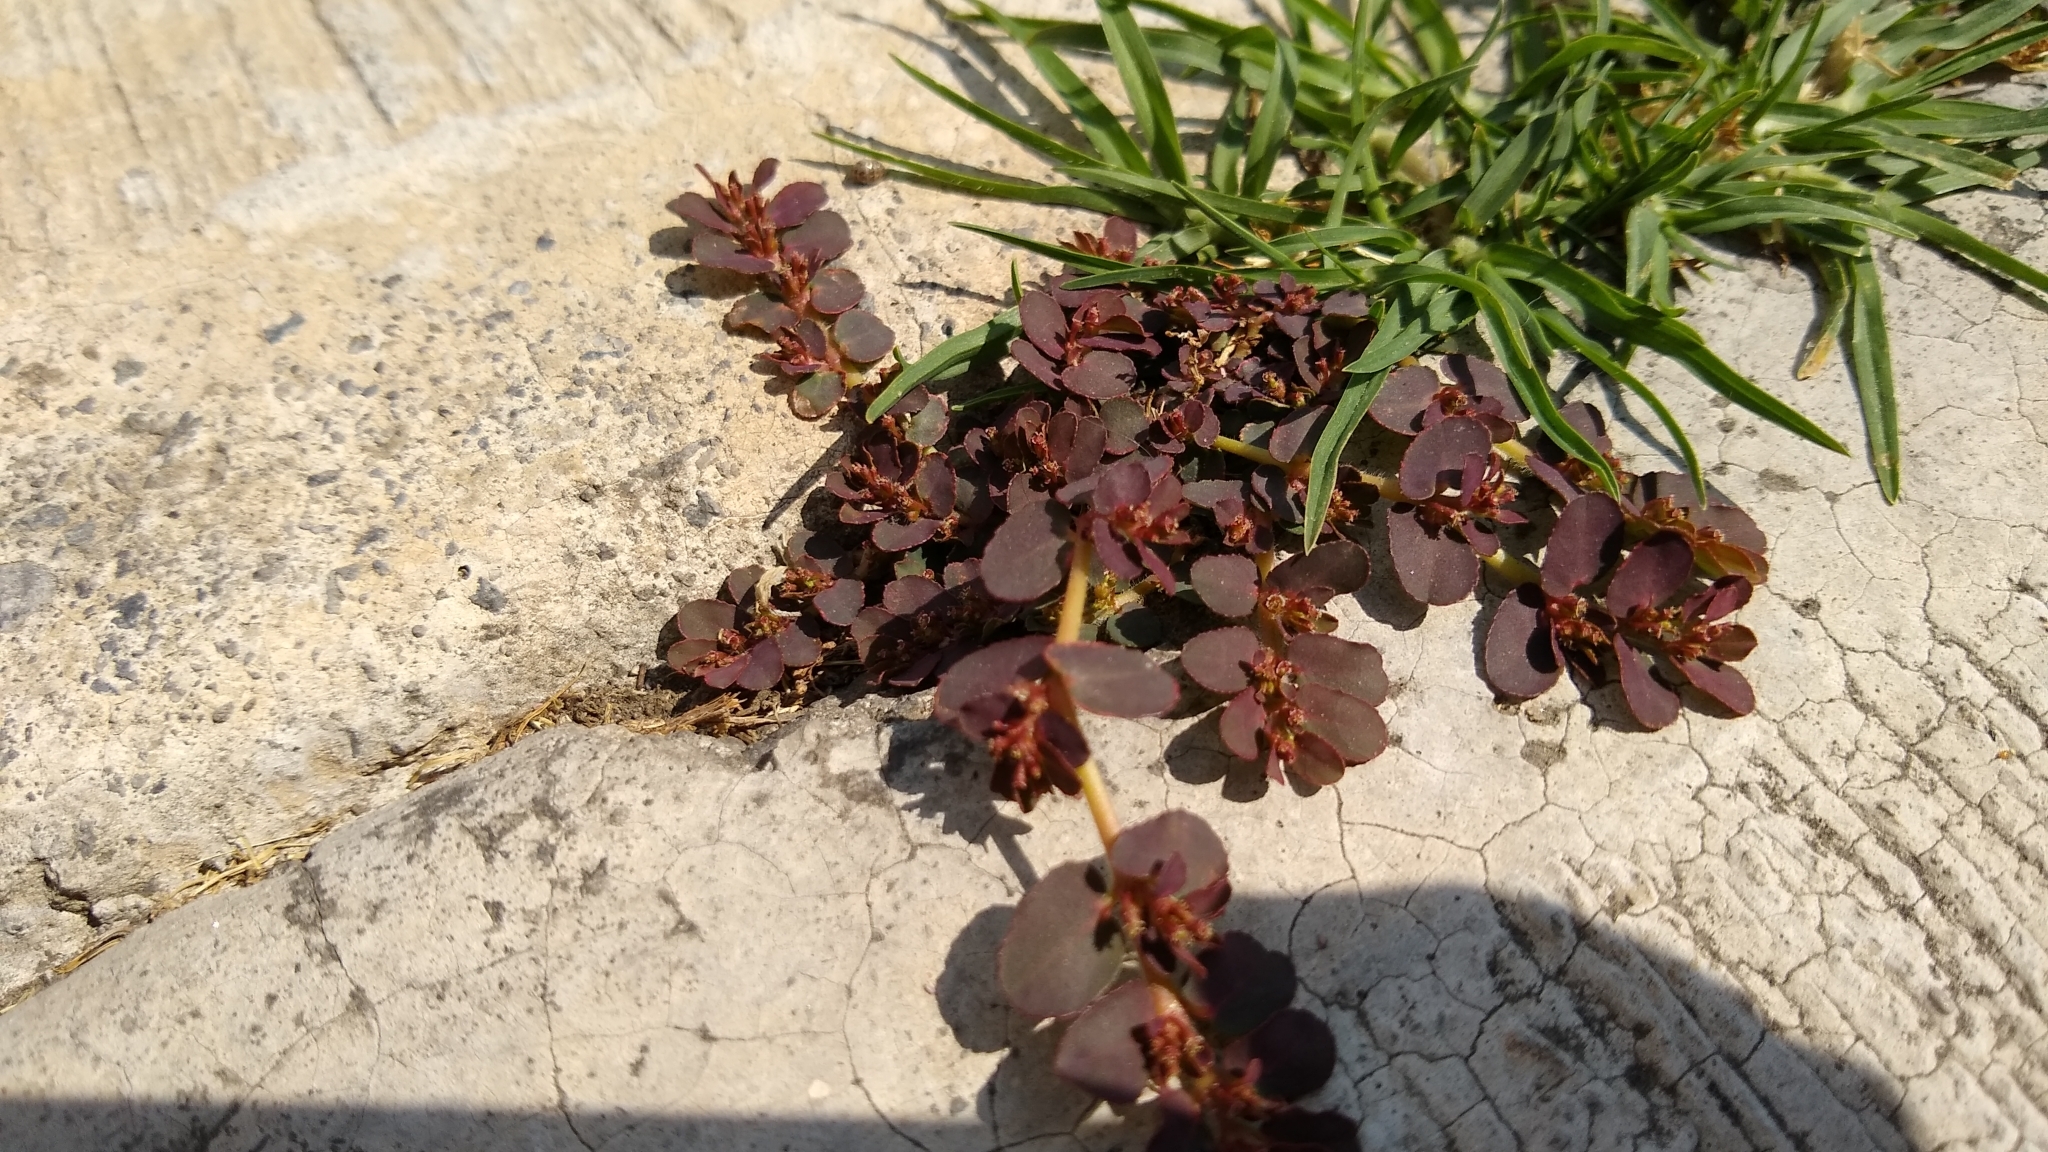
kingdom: Plantae
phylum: Tracheophyta
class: Magnoliopsida
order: Malpighiales
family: Euphorbiaceae
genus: Euphorbia
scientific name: Euphorbia mendezii
